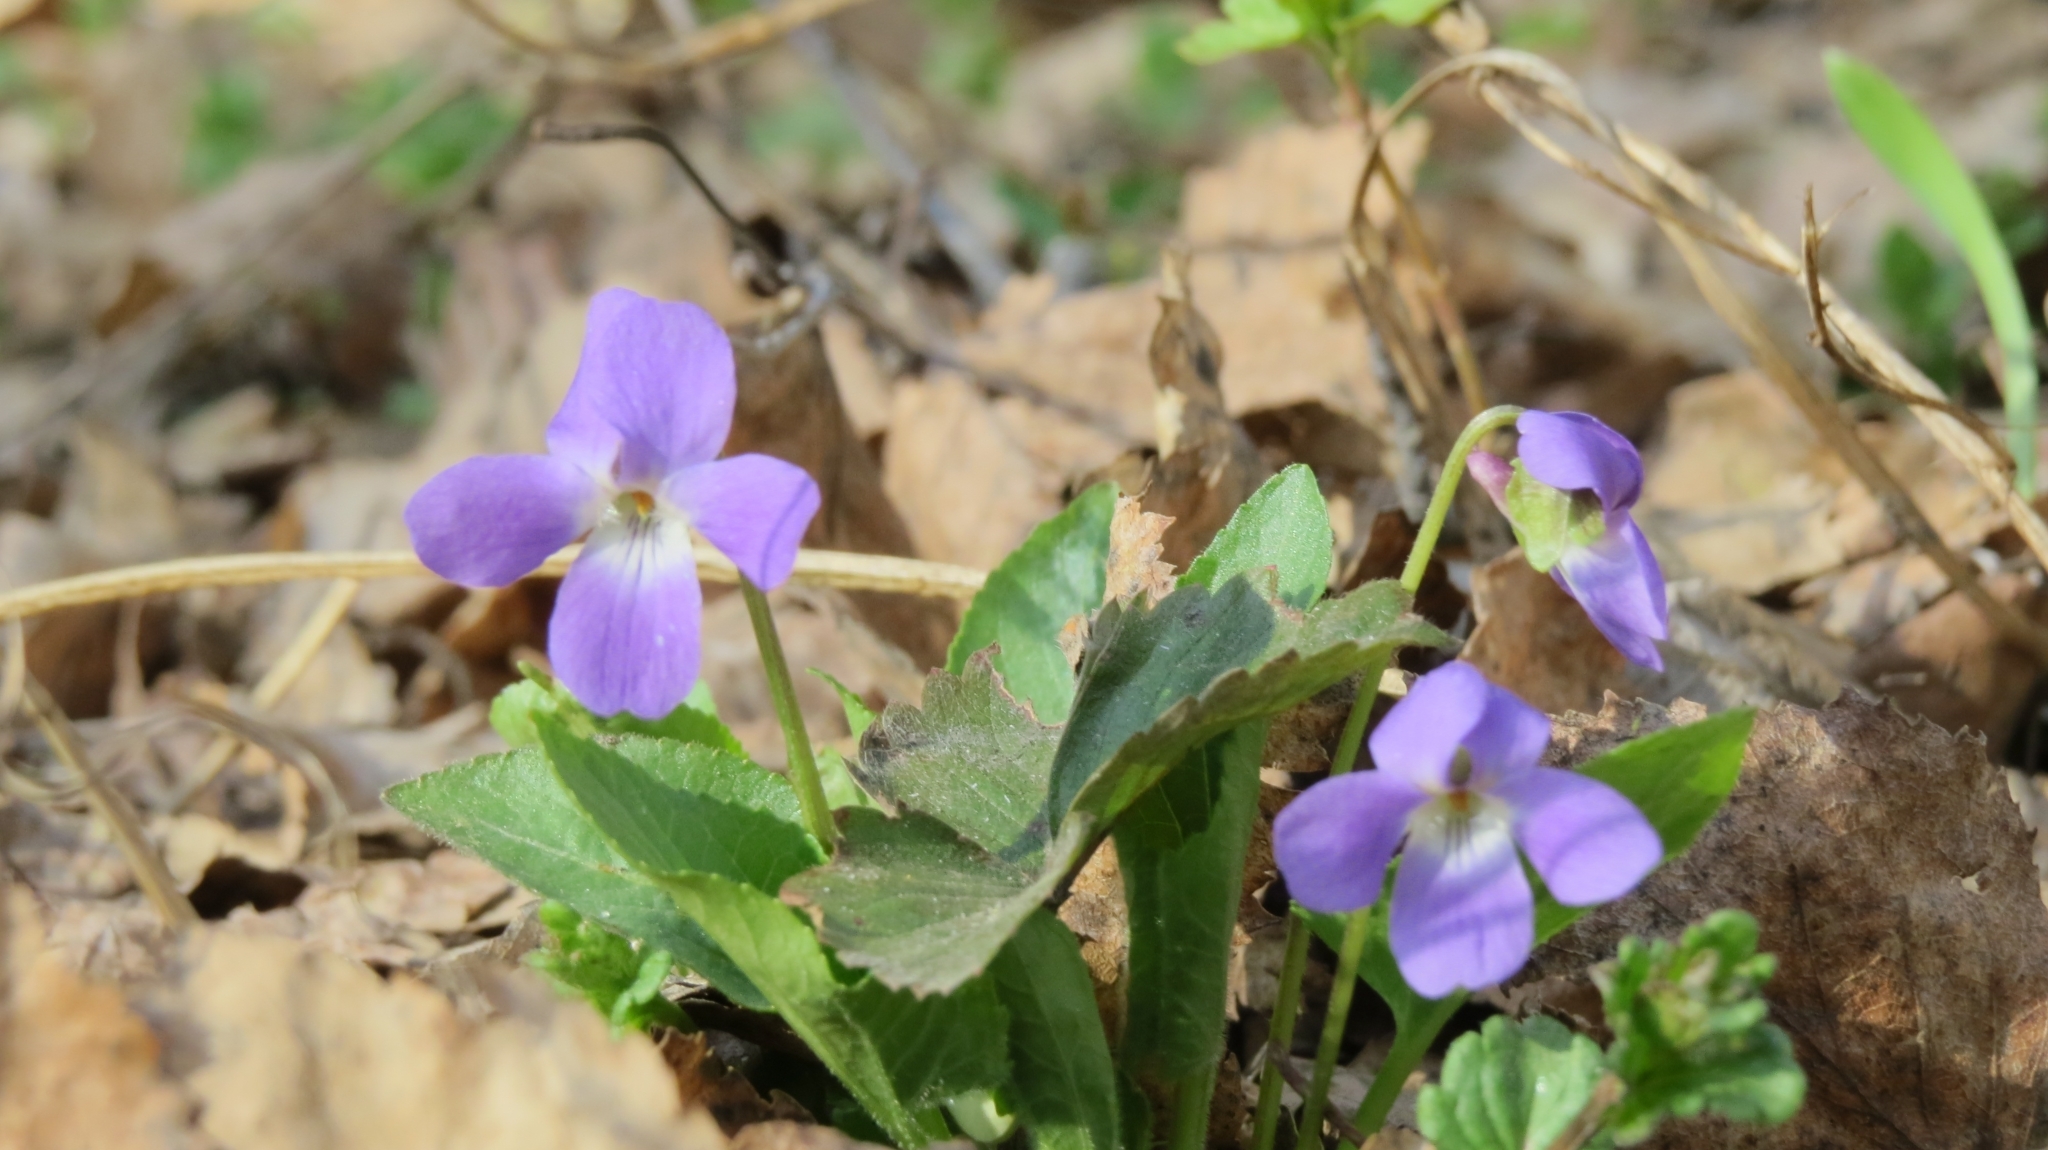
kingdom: Plantae
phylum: Tracheophyta
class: Magnoliopsida
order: Malpighiales
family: Violaceae
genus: Viola
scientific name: Viola hirta
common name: Hairy violet
